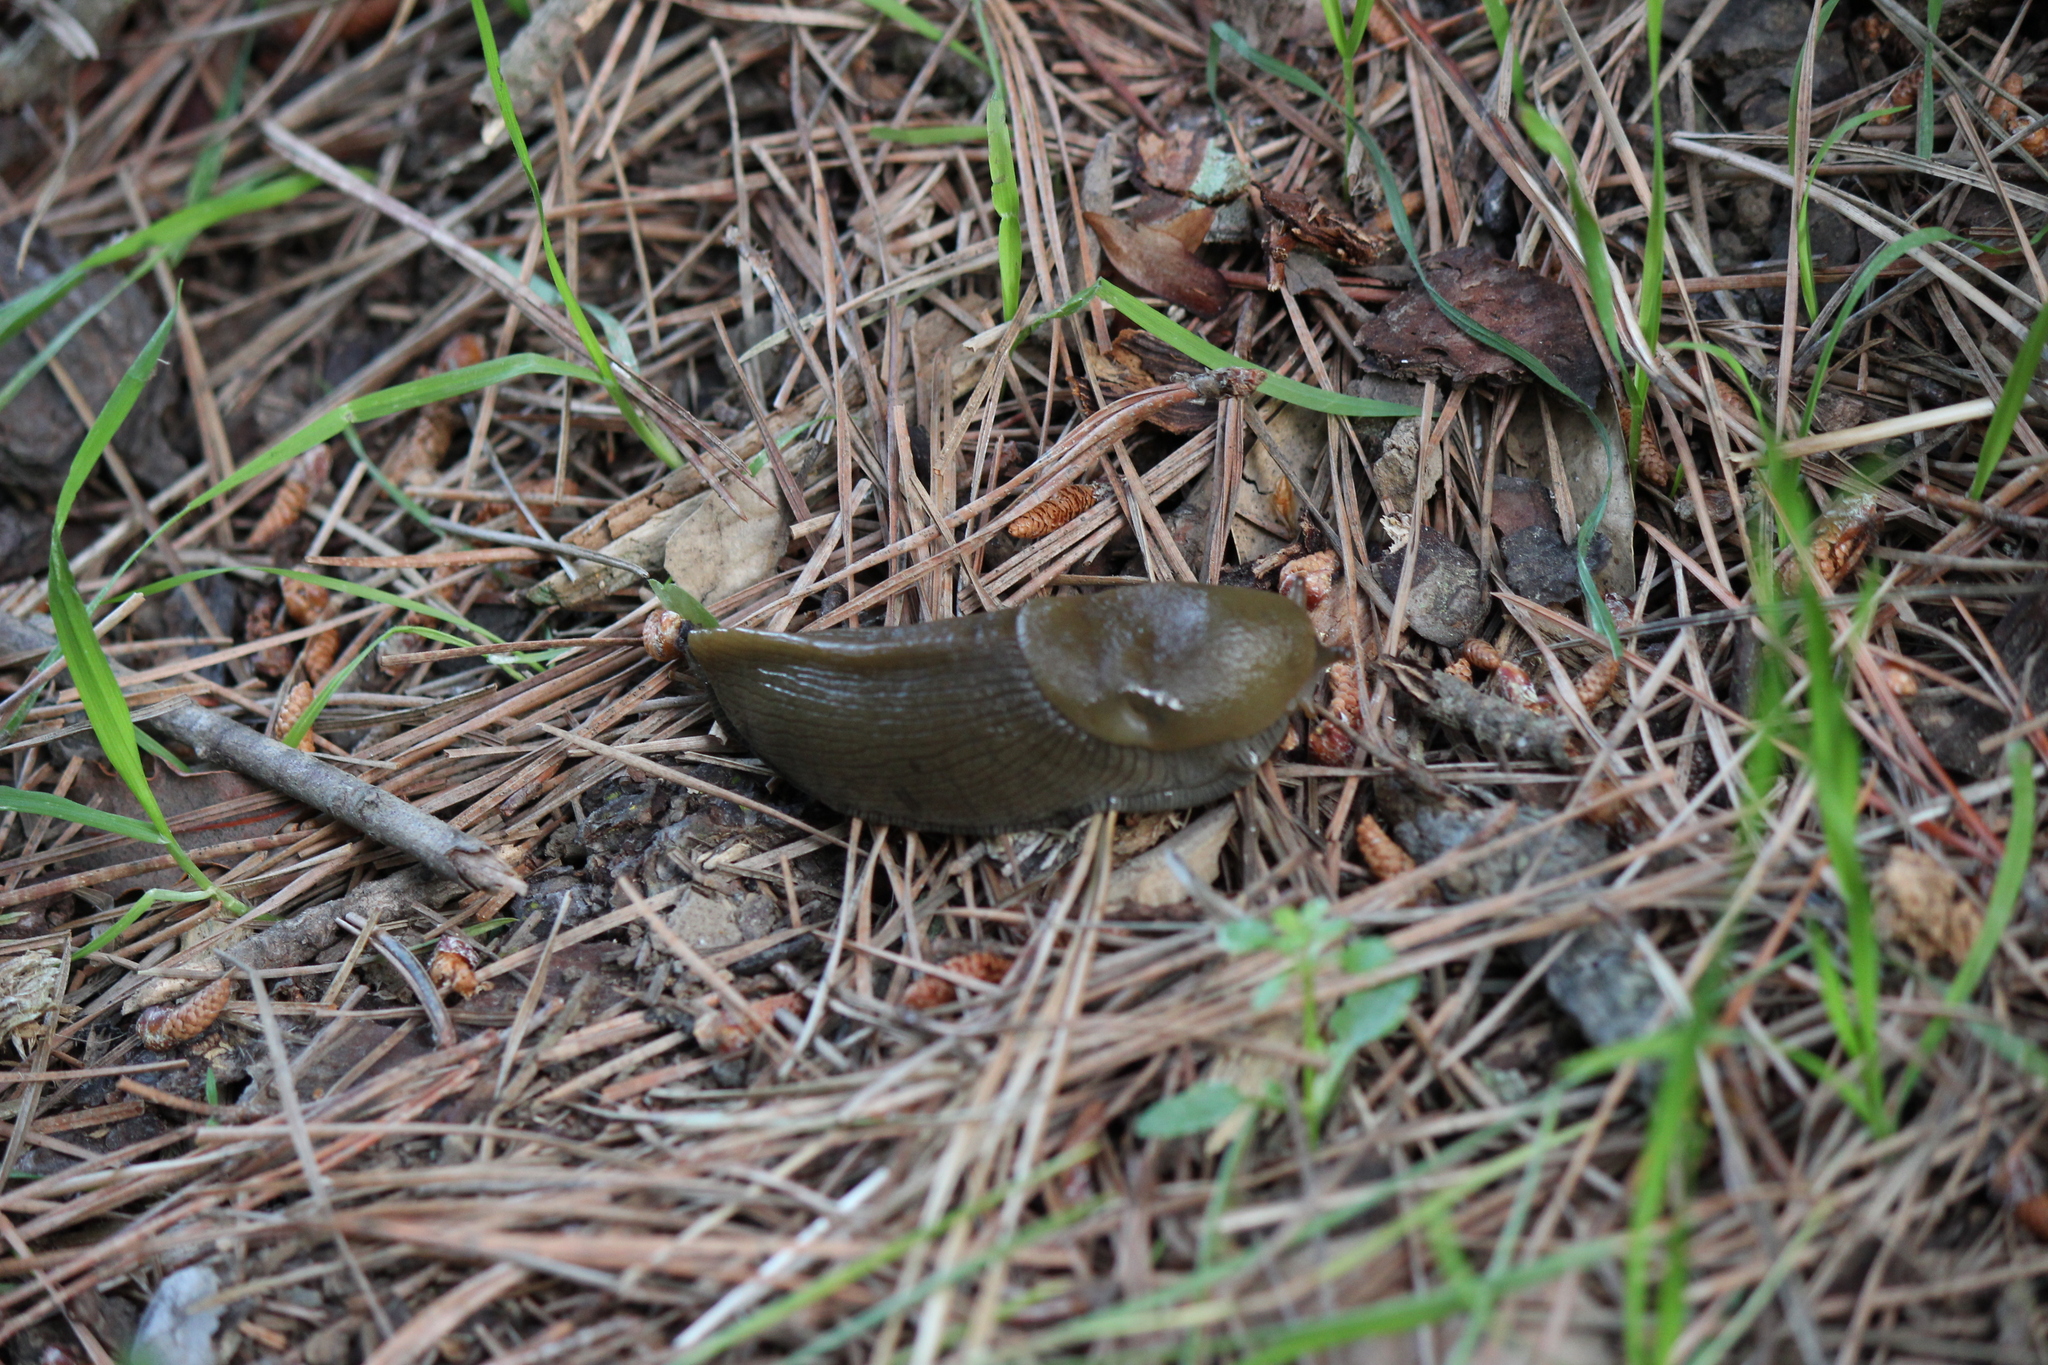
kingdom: Animalia
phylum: Mollusca
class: Gastropoda
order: Stylommatophora
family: Ariolimacidae
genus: Ariolimax
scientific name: Ariolimax buttoni
